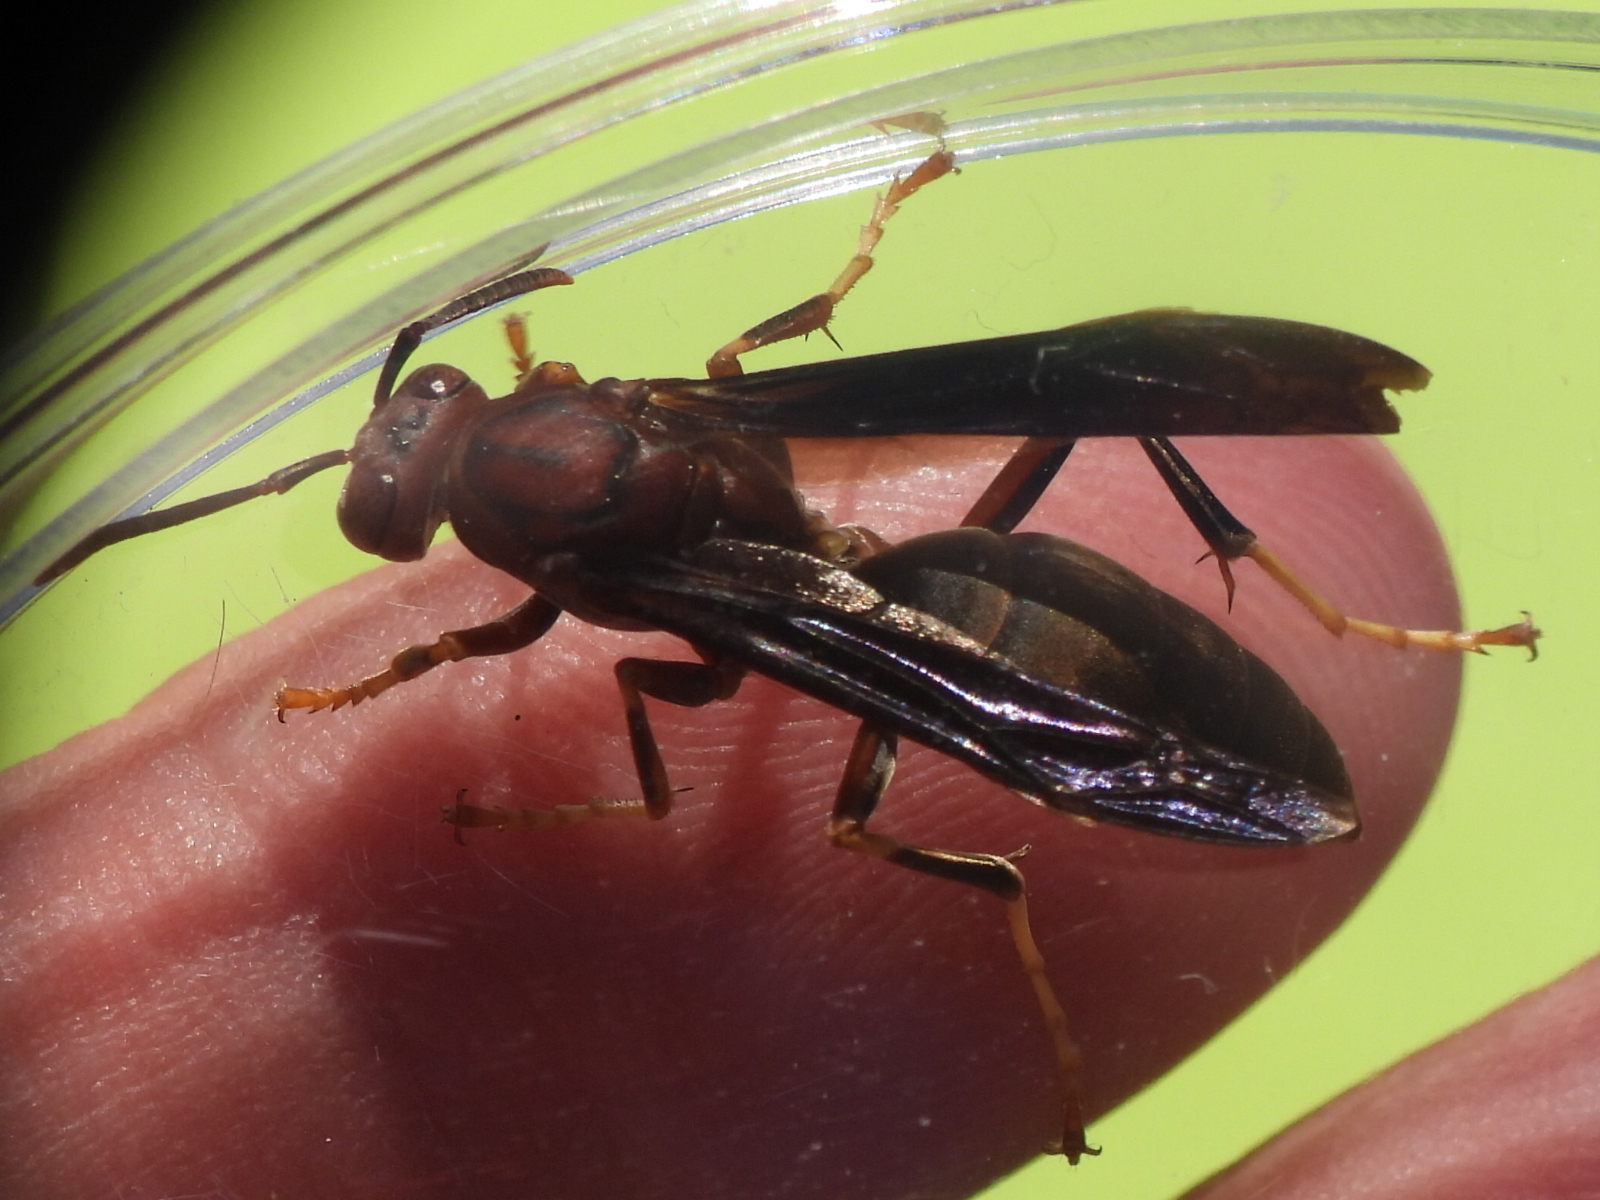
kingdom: Animalia
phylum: Arthropoda
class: Insecta
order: Hymenoptera
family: Eumenidae
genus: Polistes
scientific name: Polistes metricus
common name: Metric paper wasp
